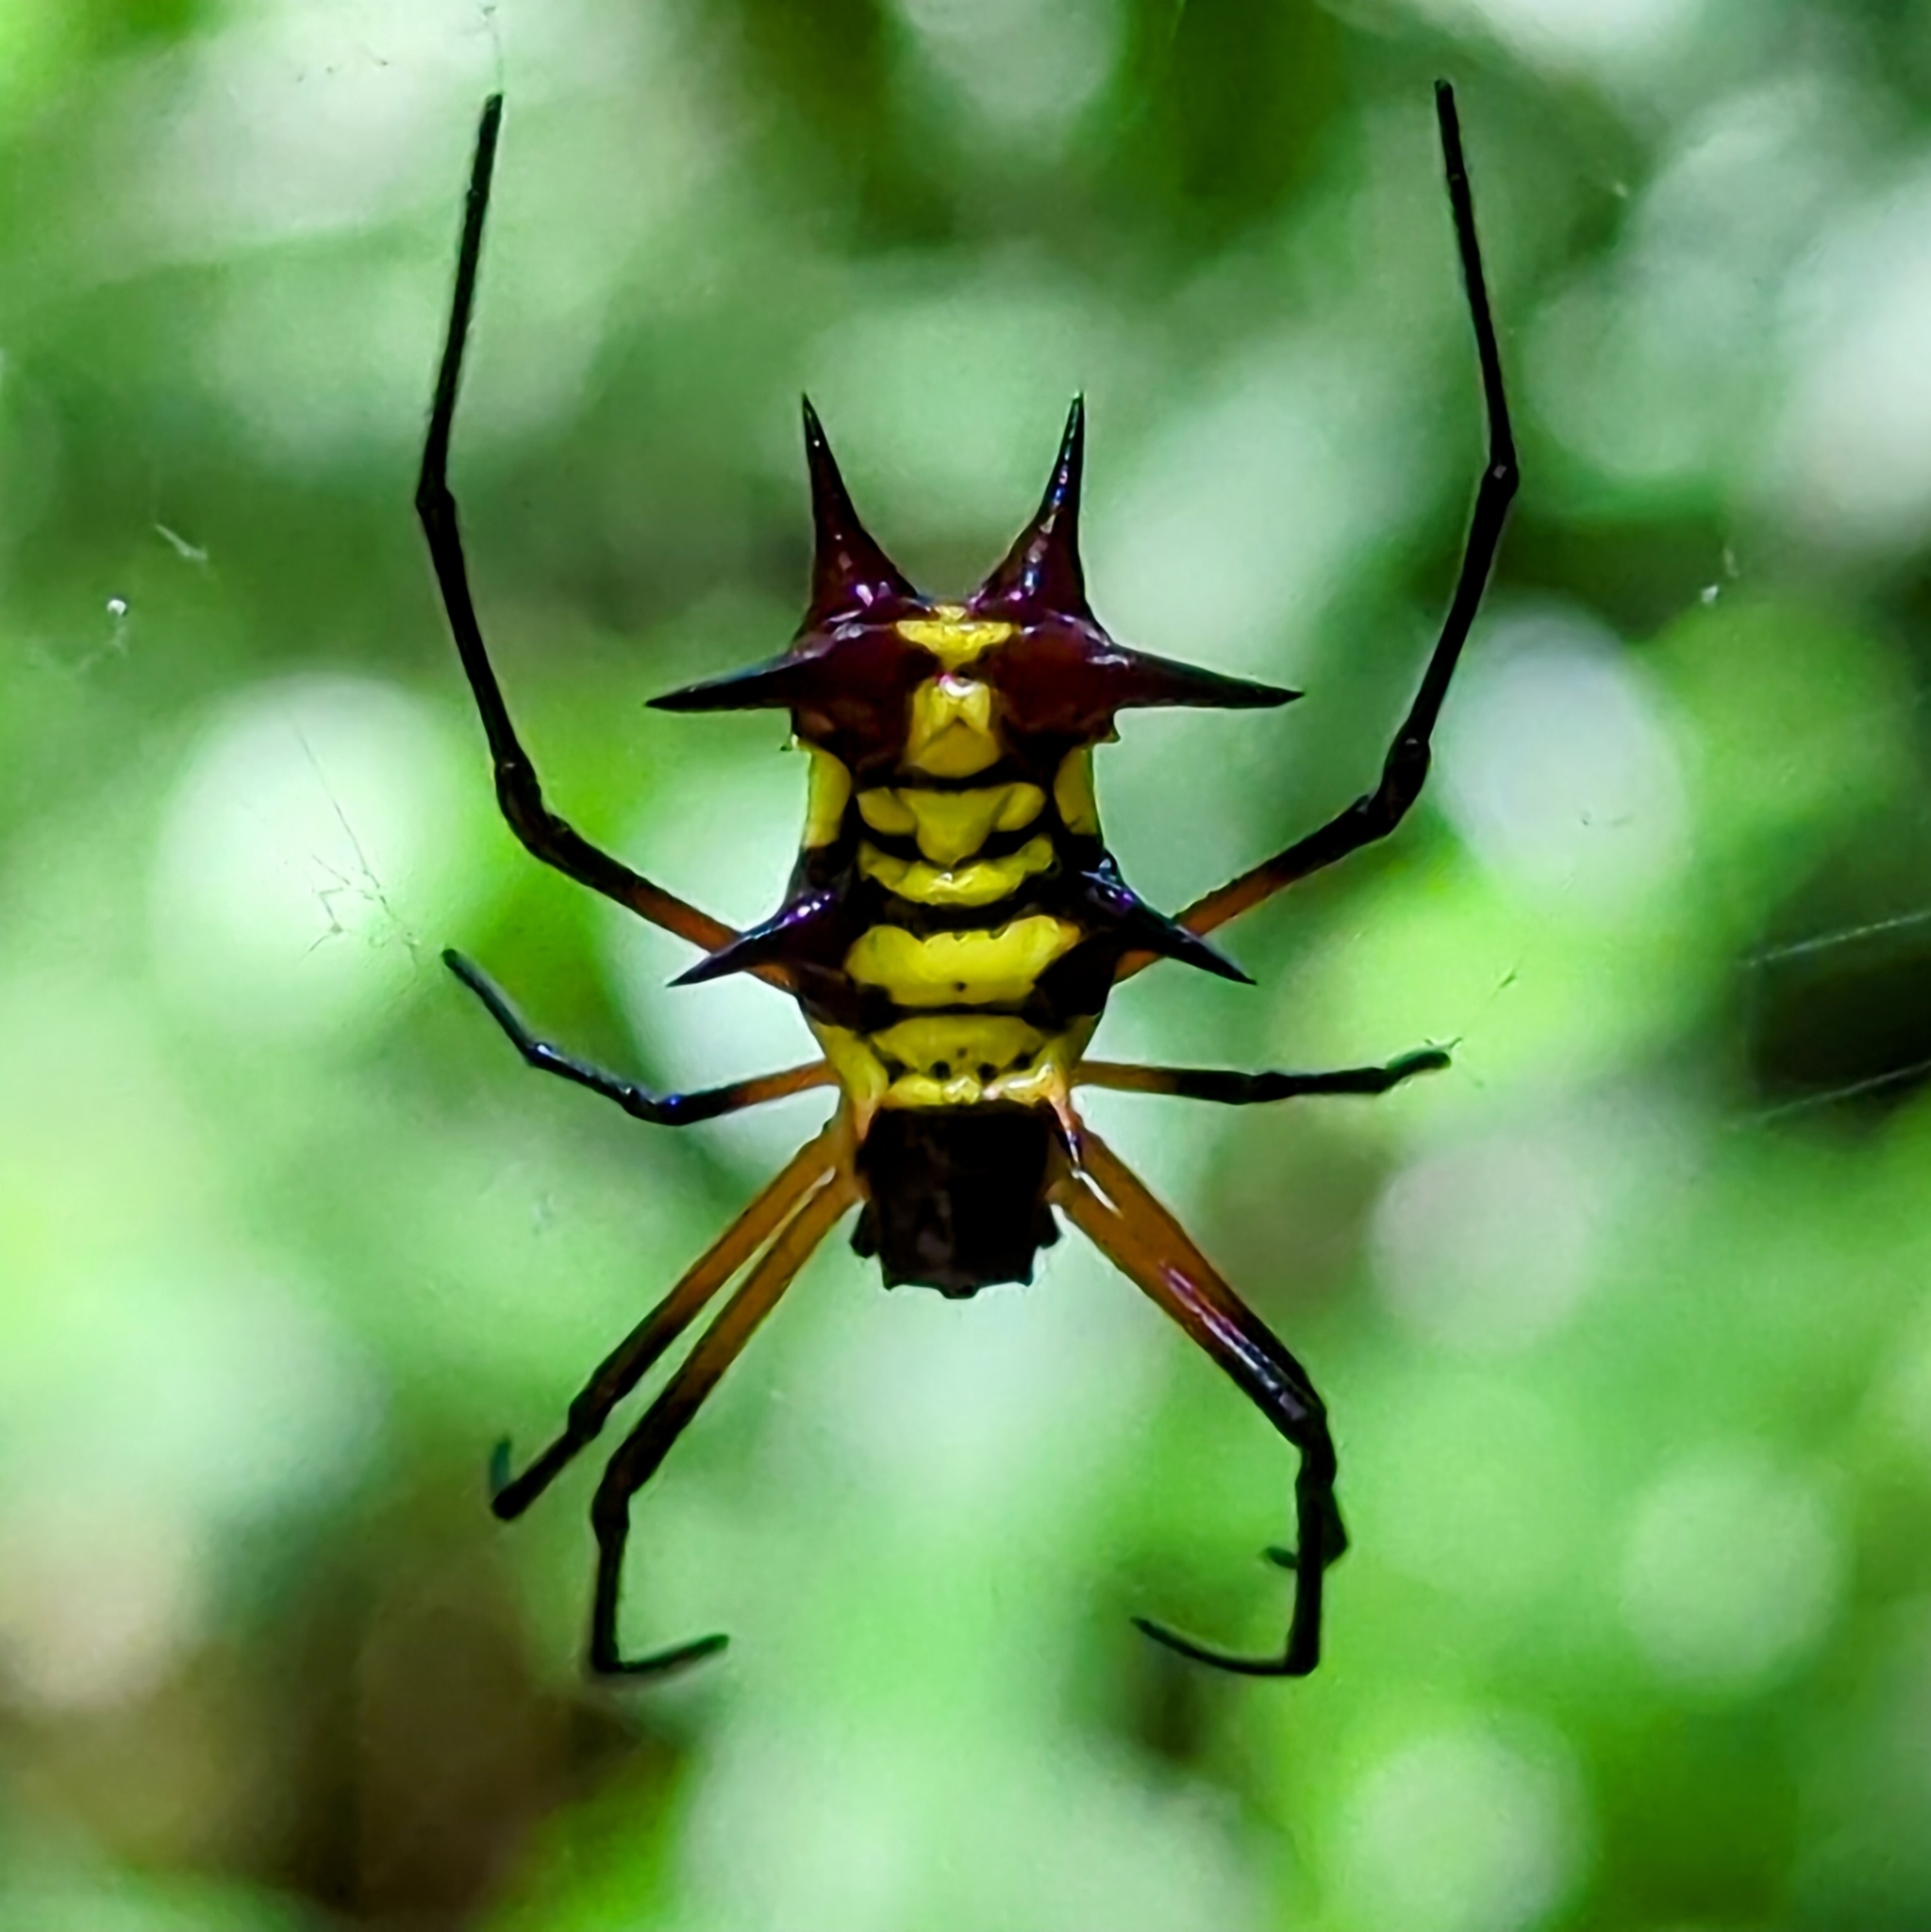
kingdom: Animalia
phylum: Arthropoda
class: Arachnida
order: Araneae
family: Araneidae
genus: Micrathena
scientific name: Micrathena kirbyi
